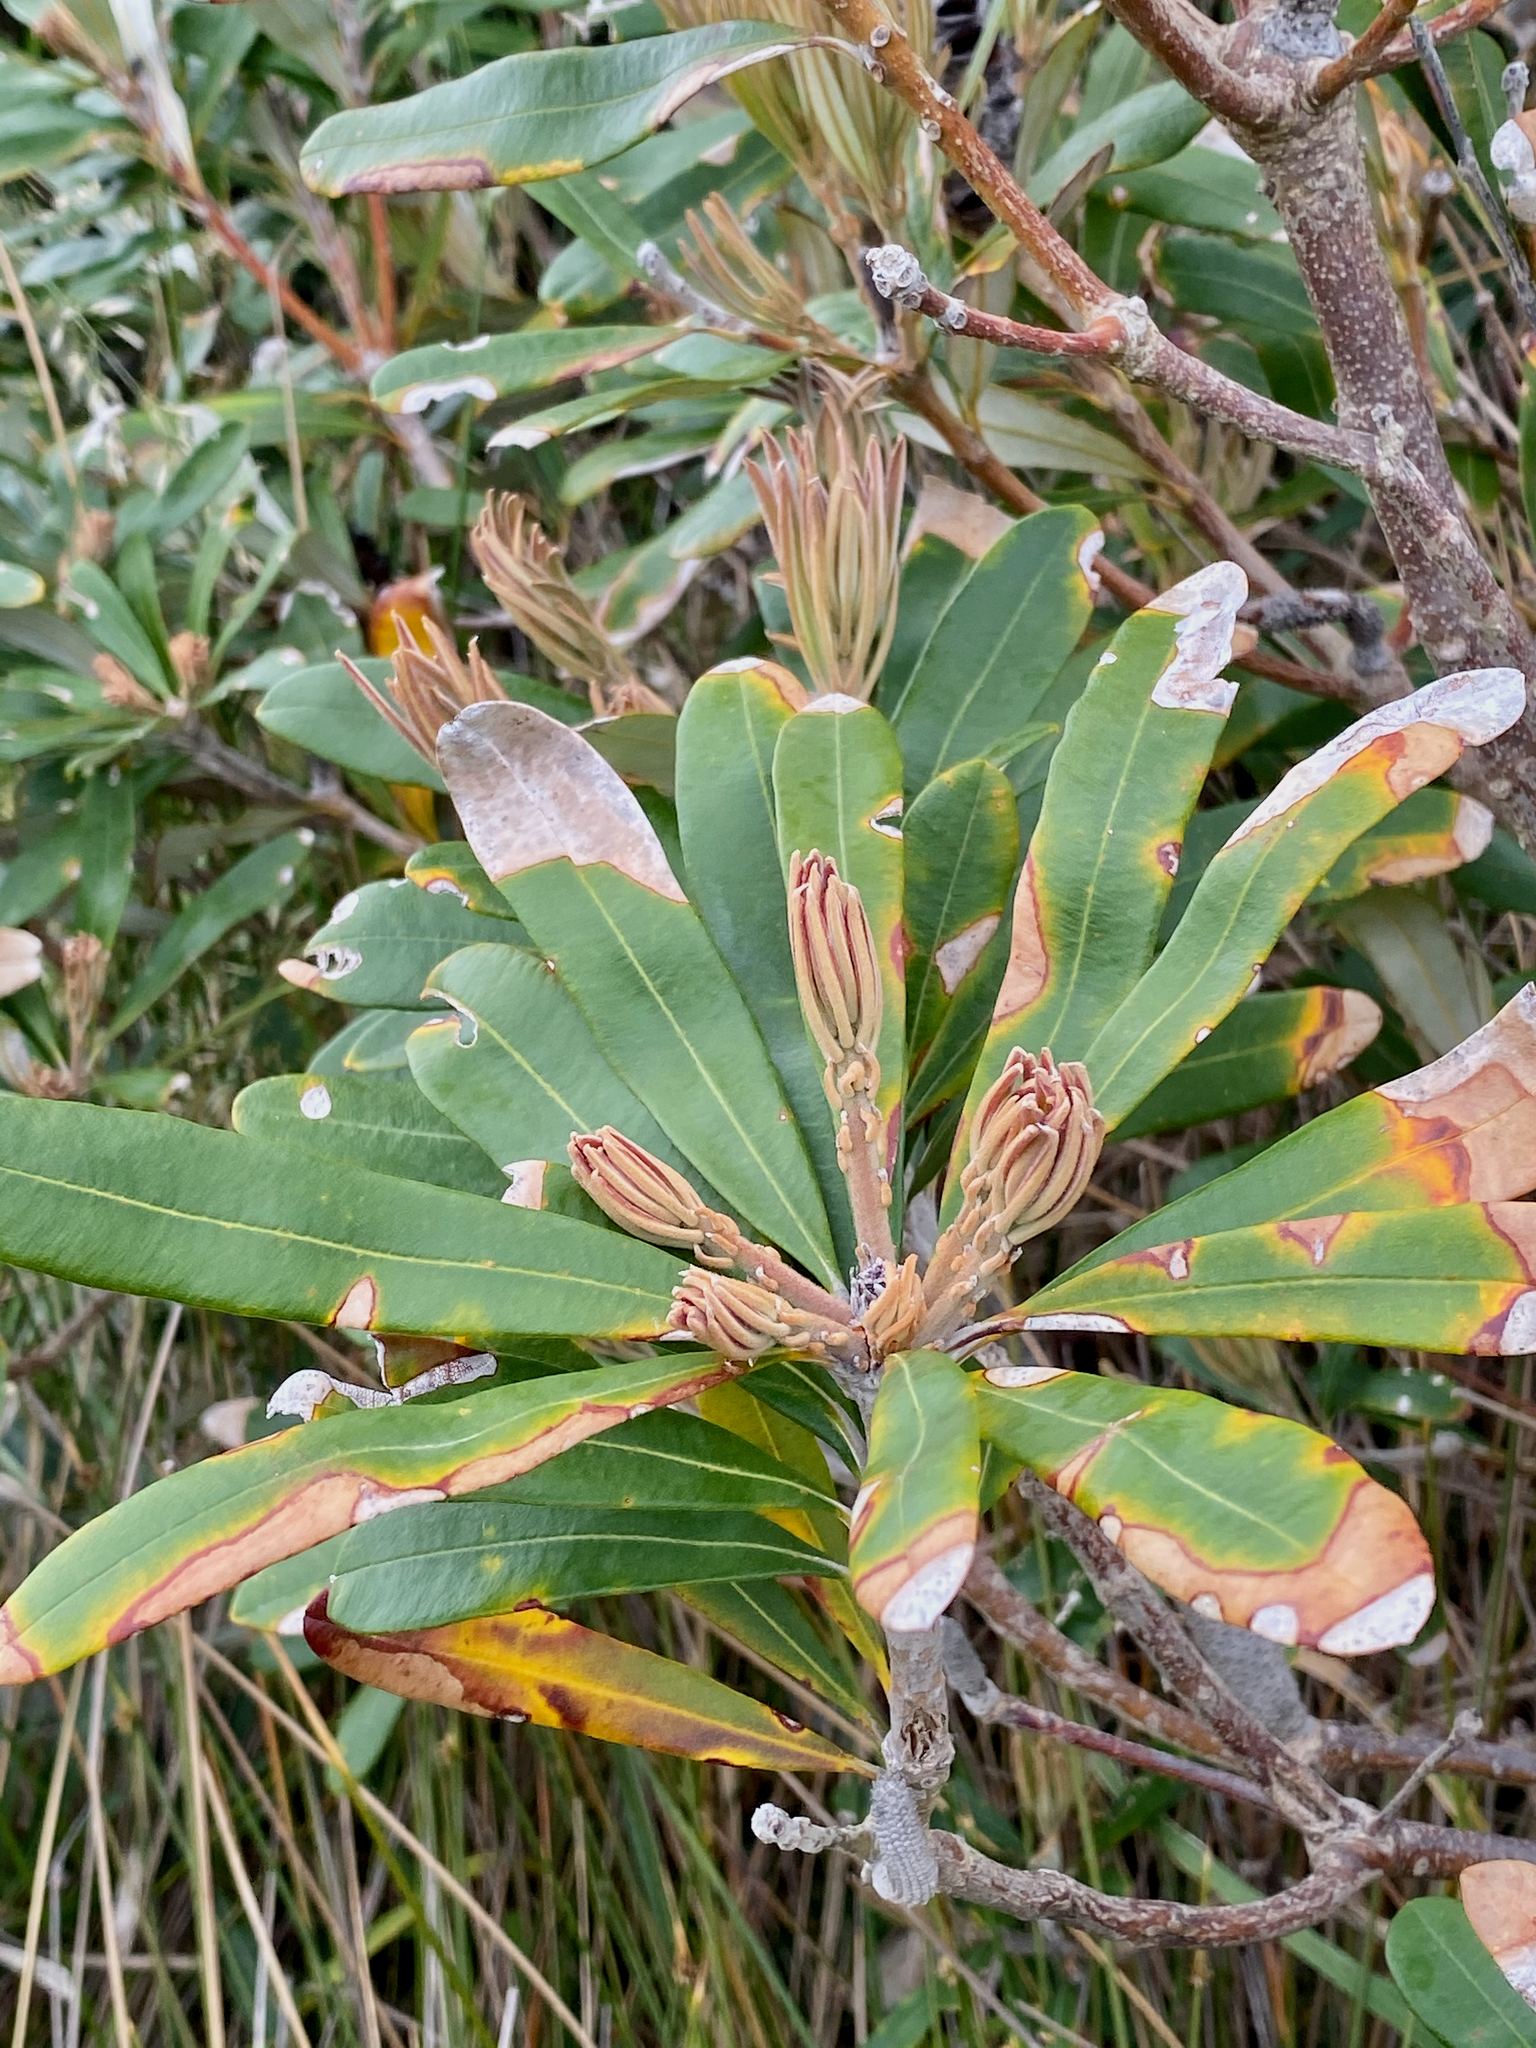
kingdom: Plantae
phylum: Tracheophyta
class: Magnoliopsida
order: Proteales
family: Proteaceae
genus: Banksia
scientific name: Banksia integrifolia
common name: White-honeysuckle
